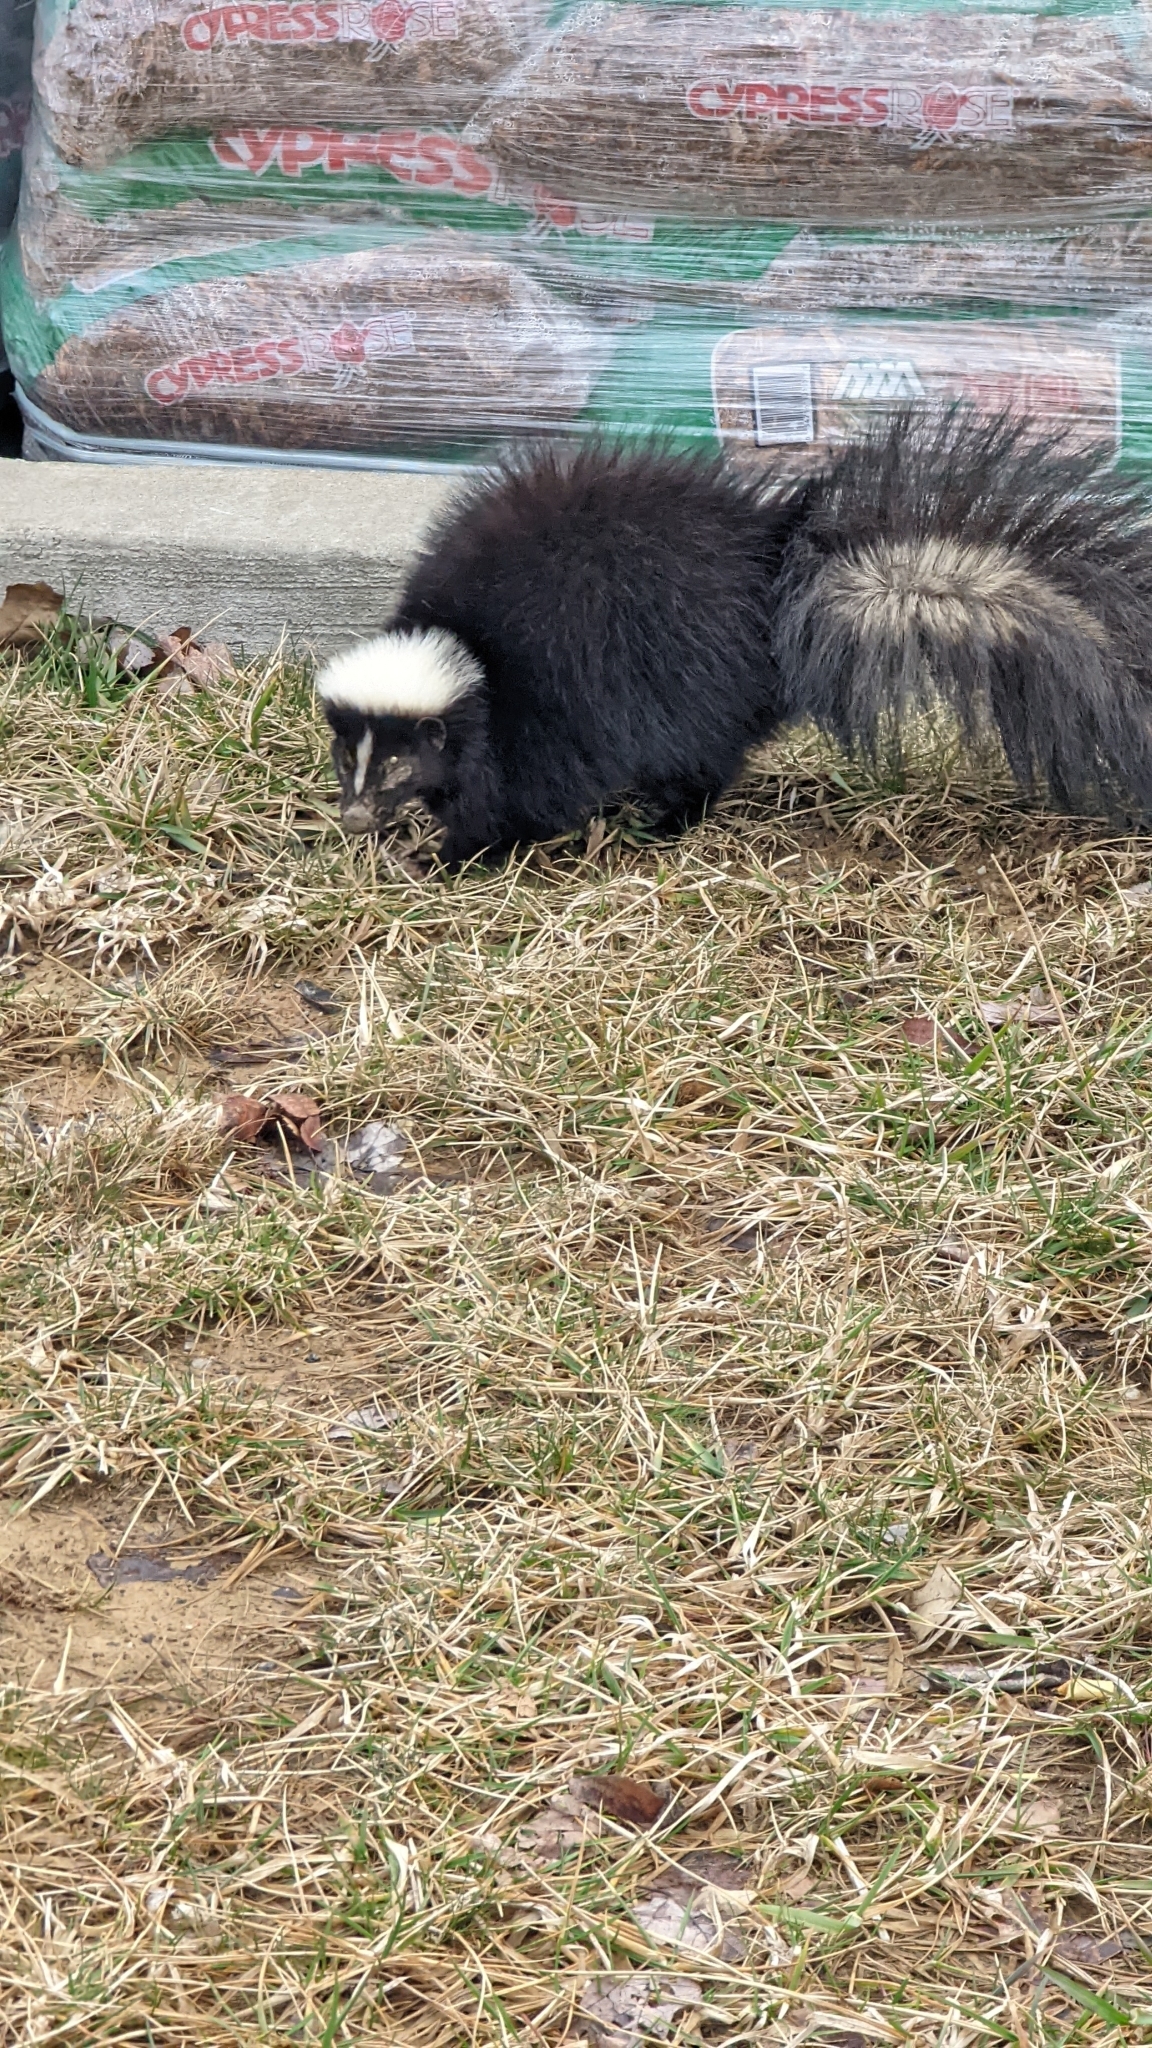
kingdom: Animalia
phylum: Chordata
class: Mammalia
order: Carnivora
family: Mephitidae
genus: Mephitis
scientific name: Mephitis mephitis
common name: Striped skunk
